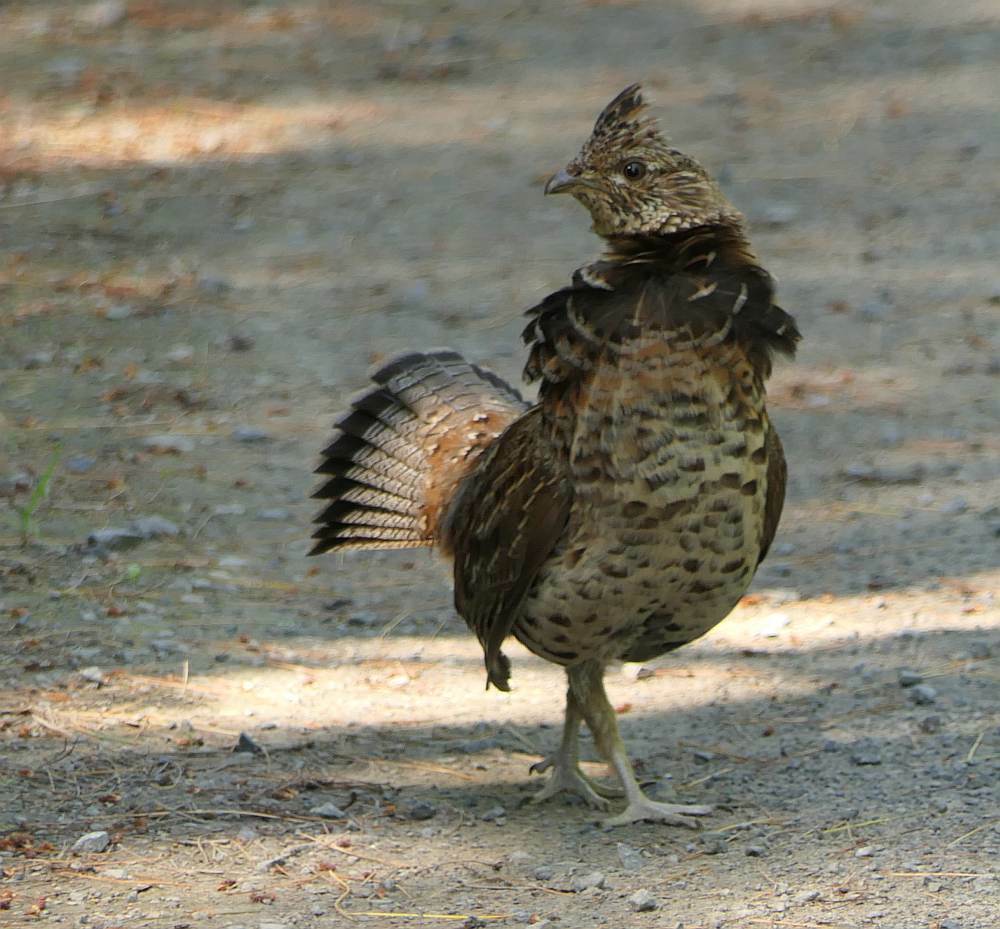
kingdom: Animalia
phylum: Chordata
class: Aves
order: Galliformes
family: Phasianidae
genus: Bonasa
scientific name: Bonasa umbellus
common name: Ruffed grouse
